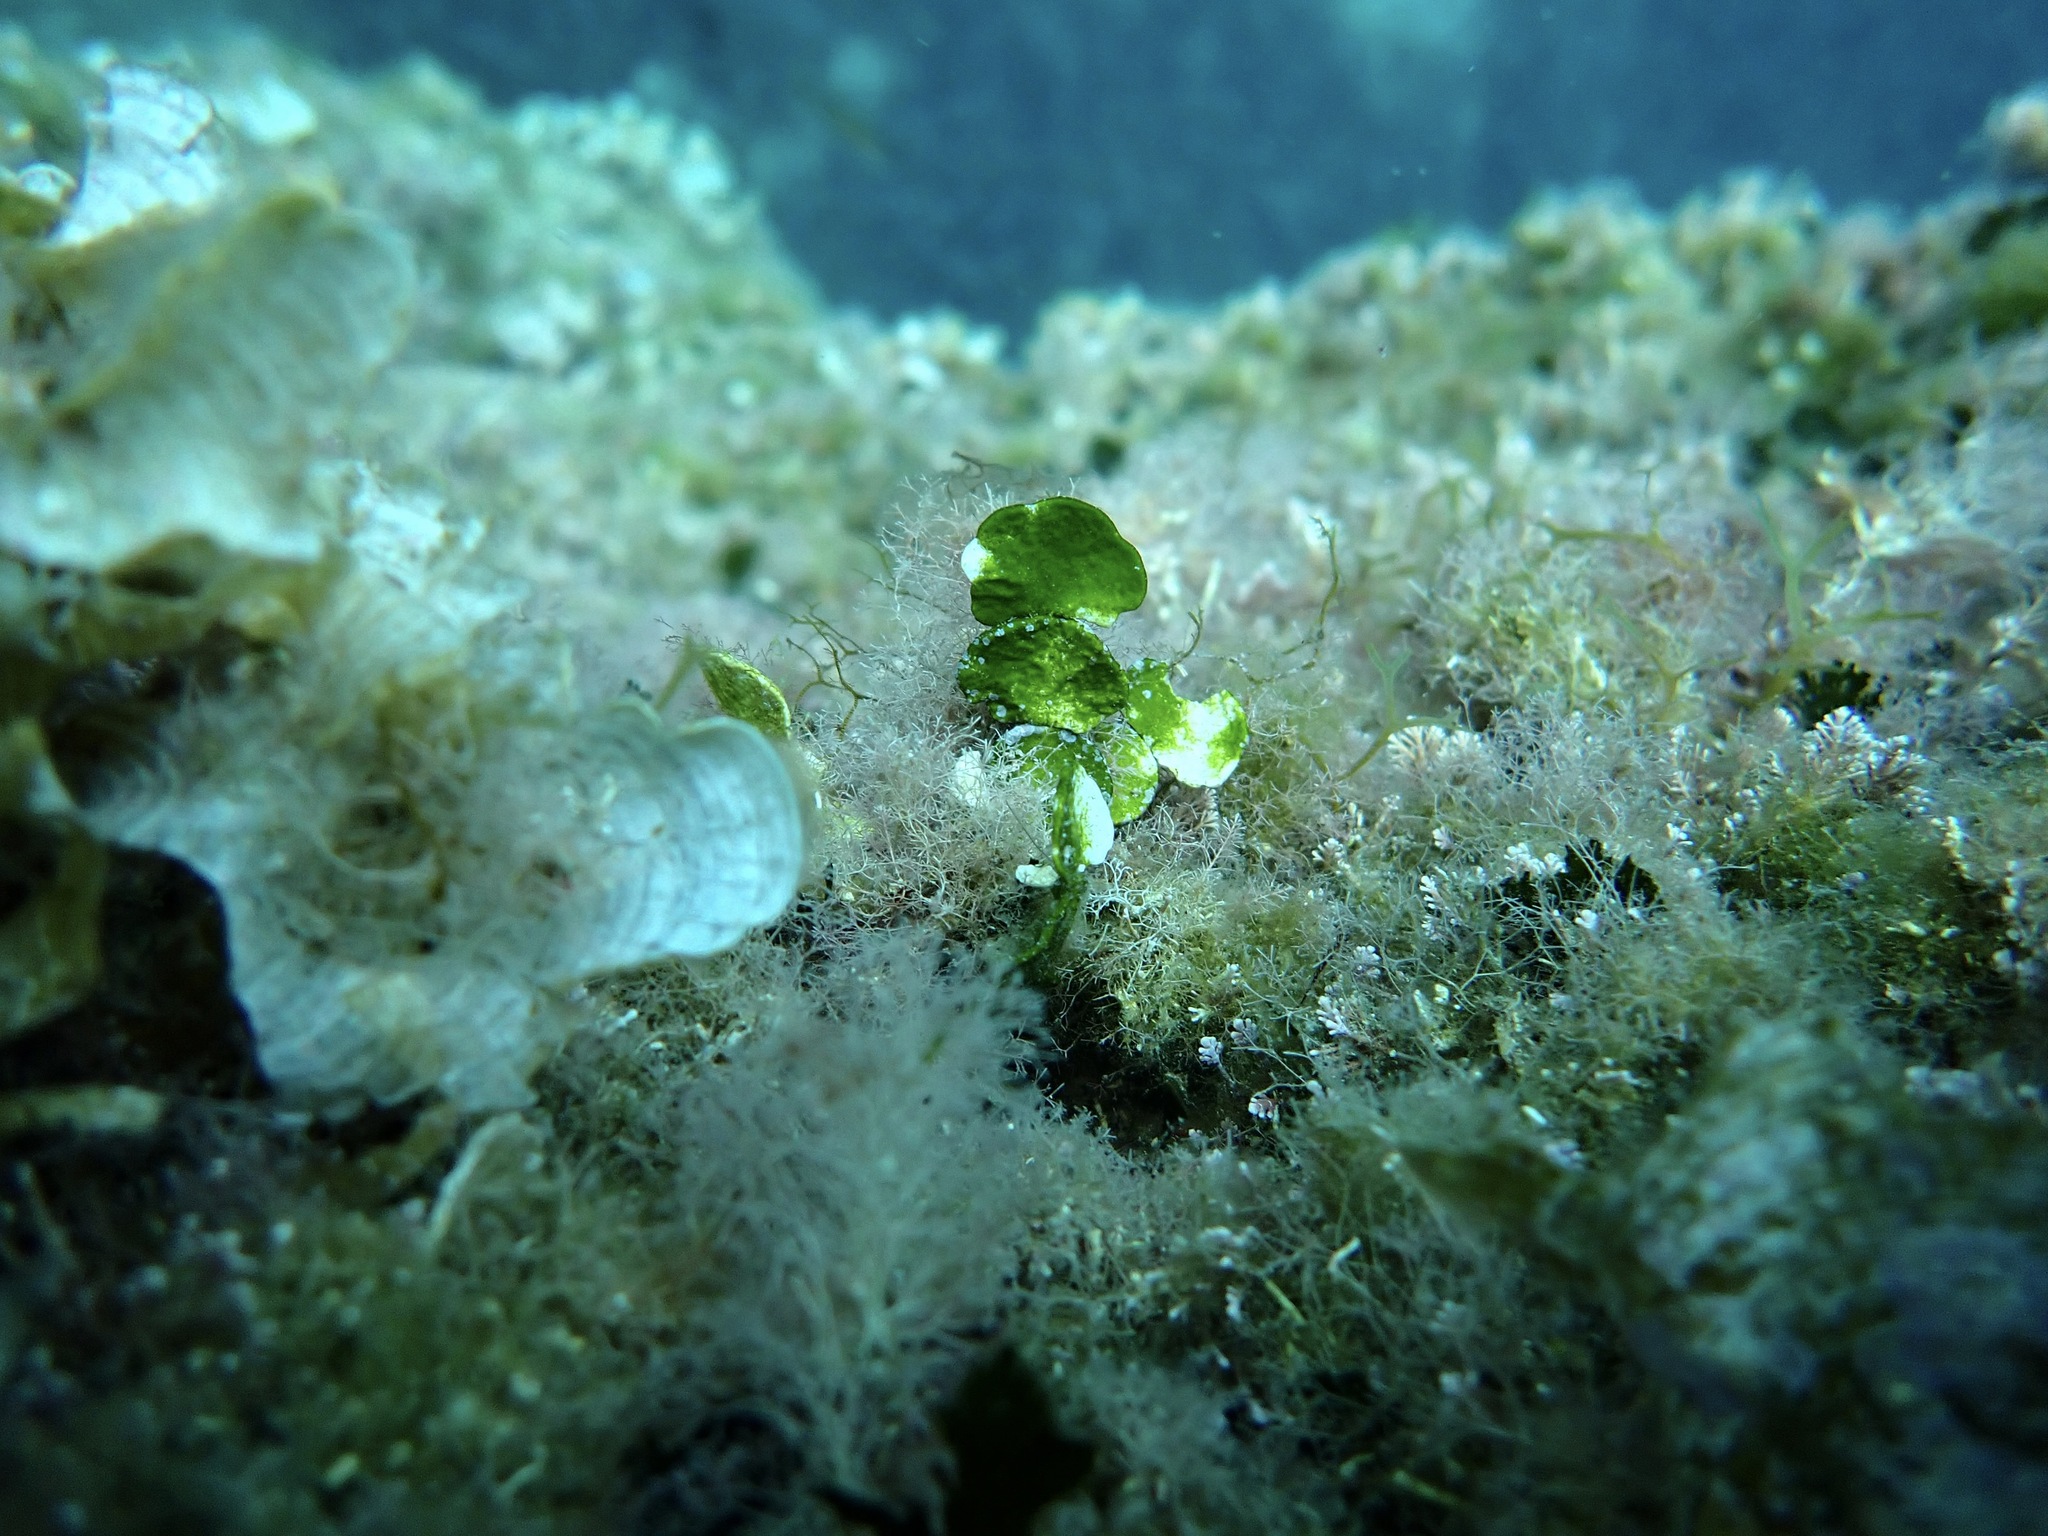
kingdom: Plantae
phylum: Chlorophyta
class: Ulvophyceae
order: Bryopsidales
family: Halimedaceae
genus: Halimeda
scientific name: Halimeda tuna
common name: Stalked lettuce leaf algae
